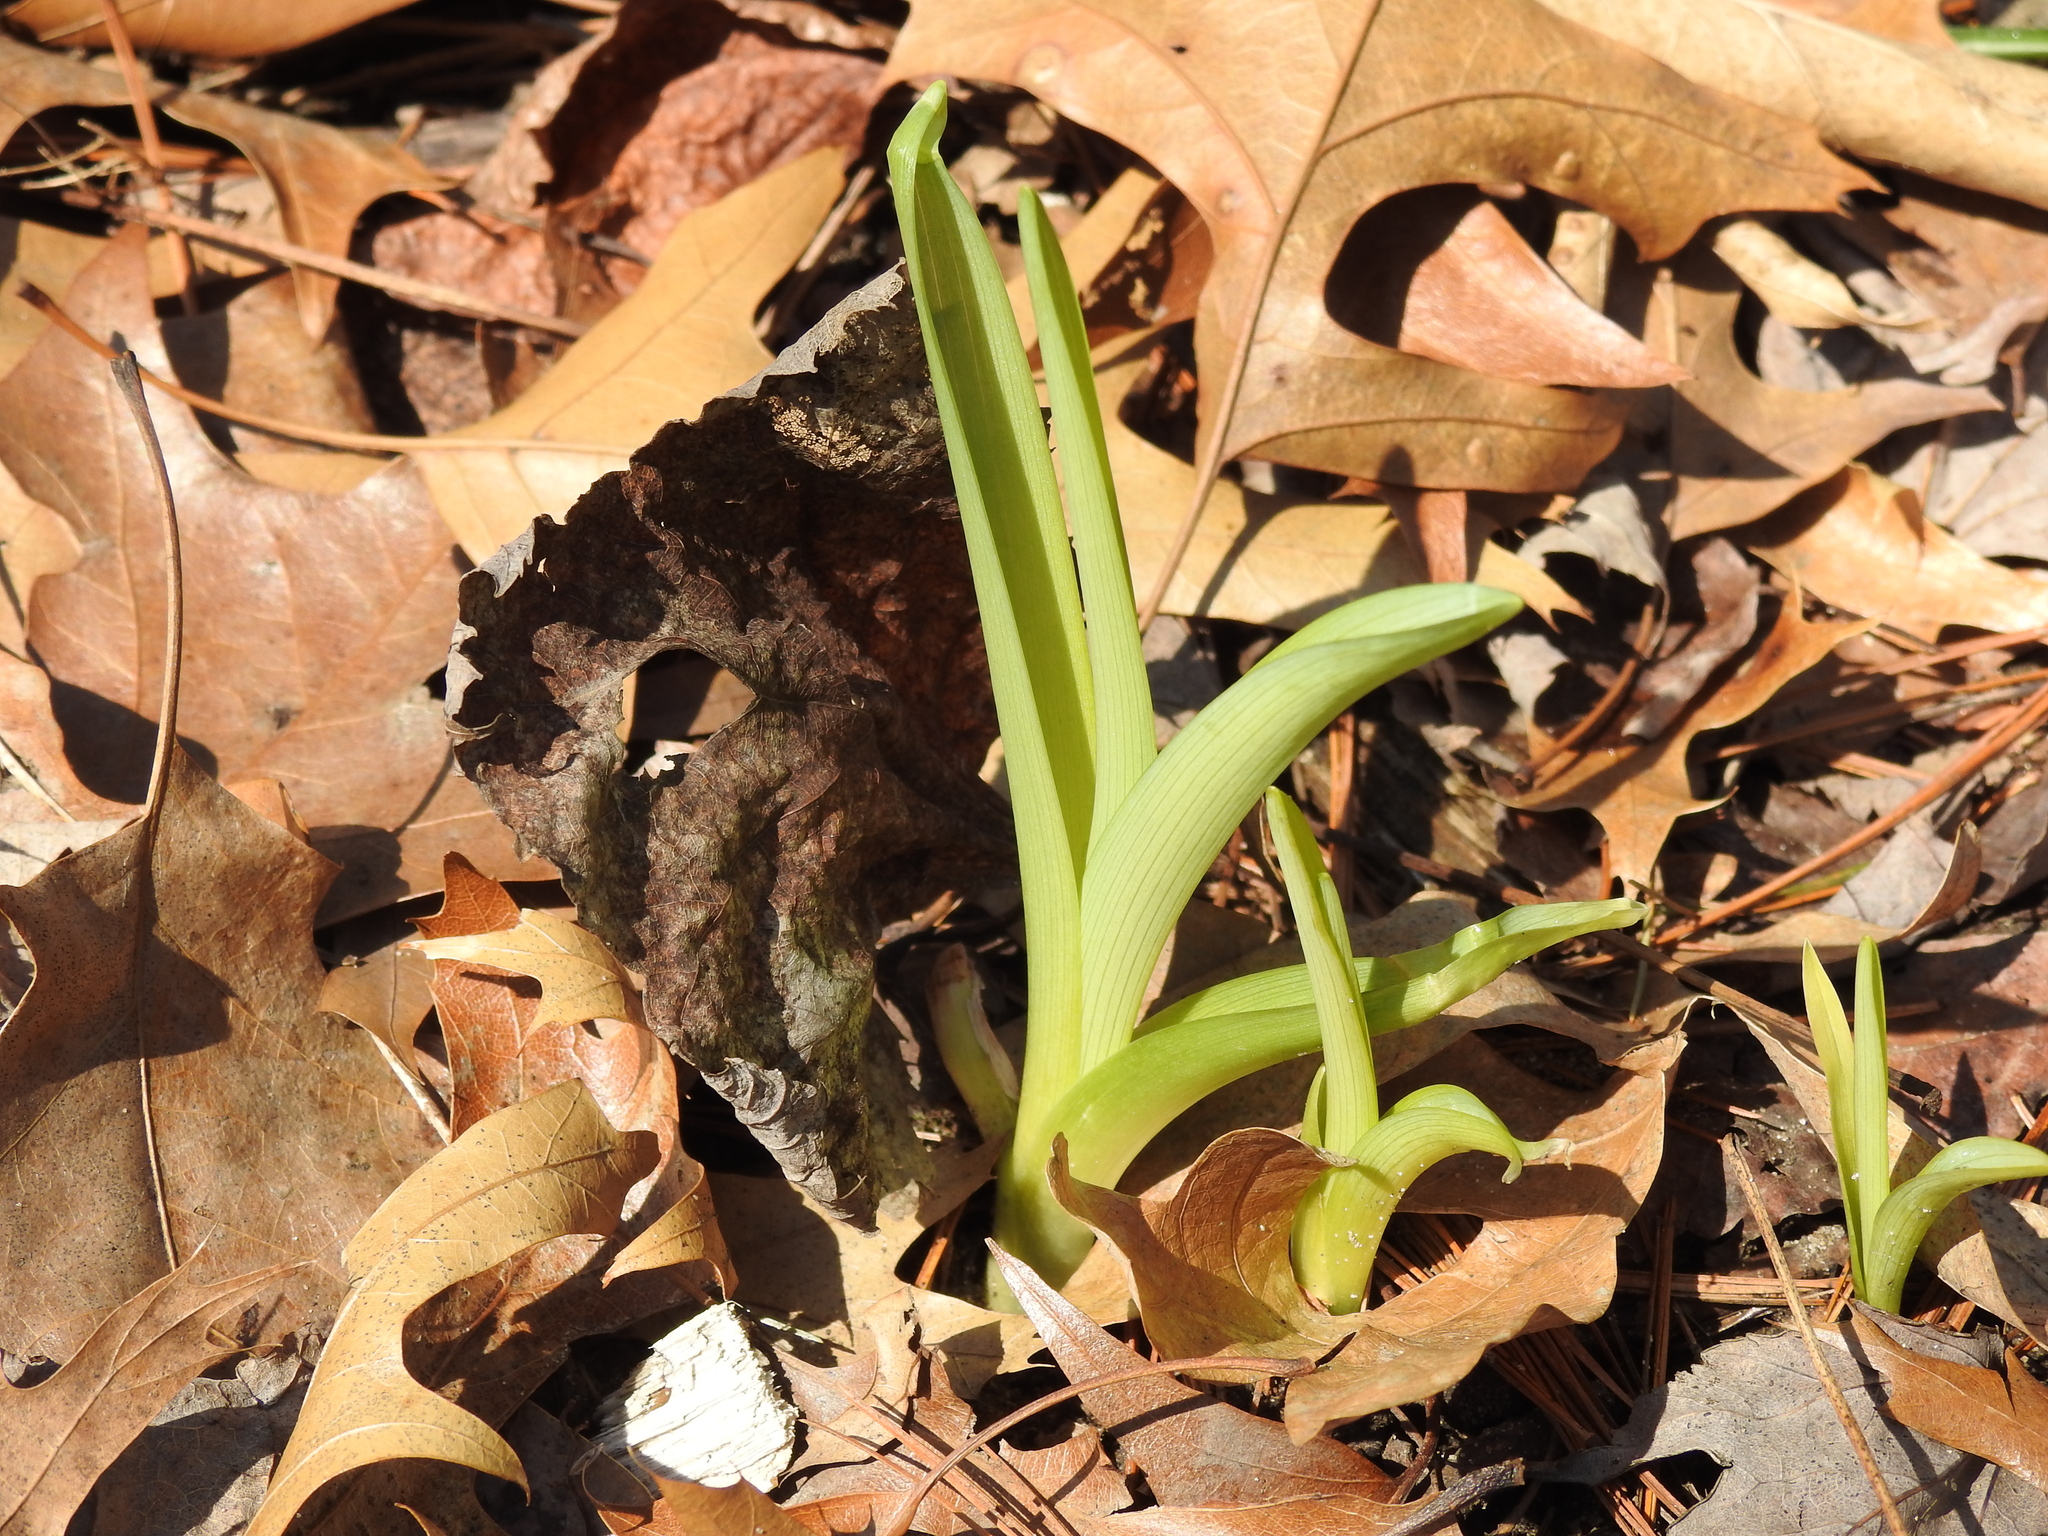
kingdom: Plantae
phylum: Tracheophyta
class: Liliopsida
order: Asparagales
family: Asphodelaceae
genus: Hemerocallis
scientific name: Hemerocallis fulva
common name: Orange day-lily
